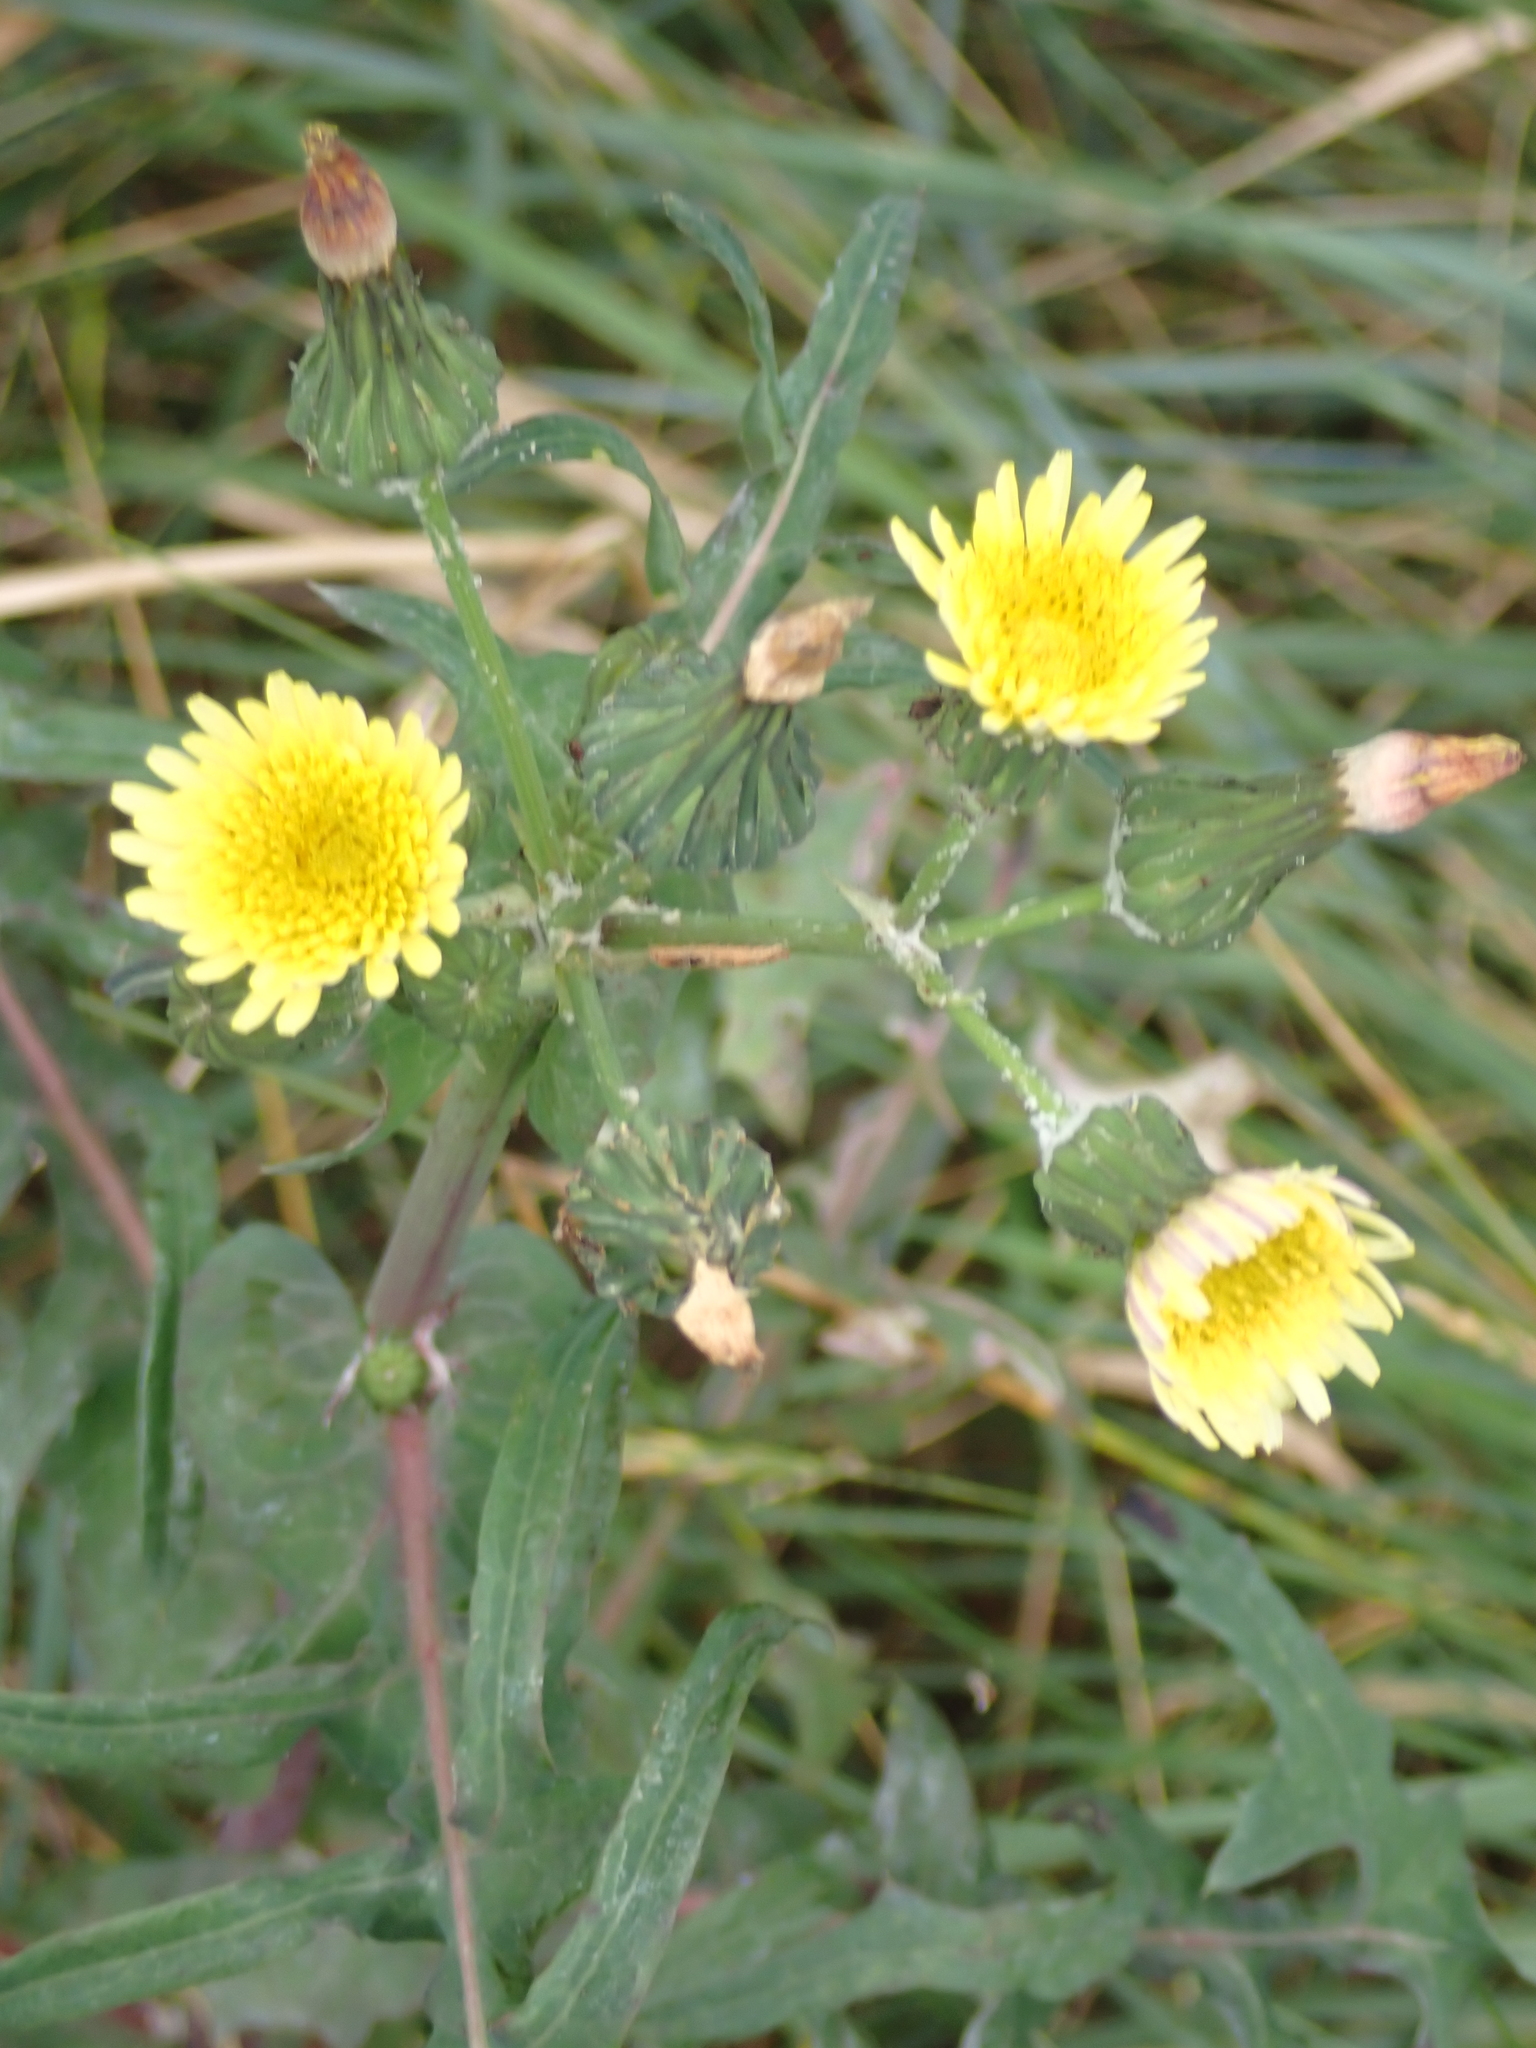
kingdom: Plantae
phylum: Tracheophyta
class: Magnoliopsida
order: Asterales
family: Asteraceae
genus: Sonchus
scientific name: Sonchus oleraceus
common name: Common sowthistle
